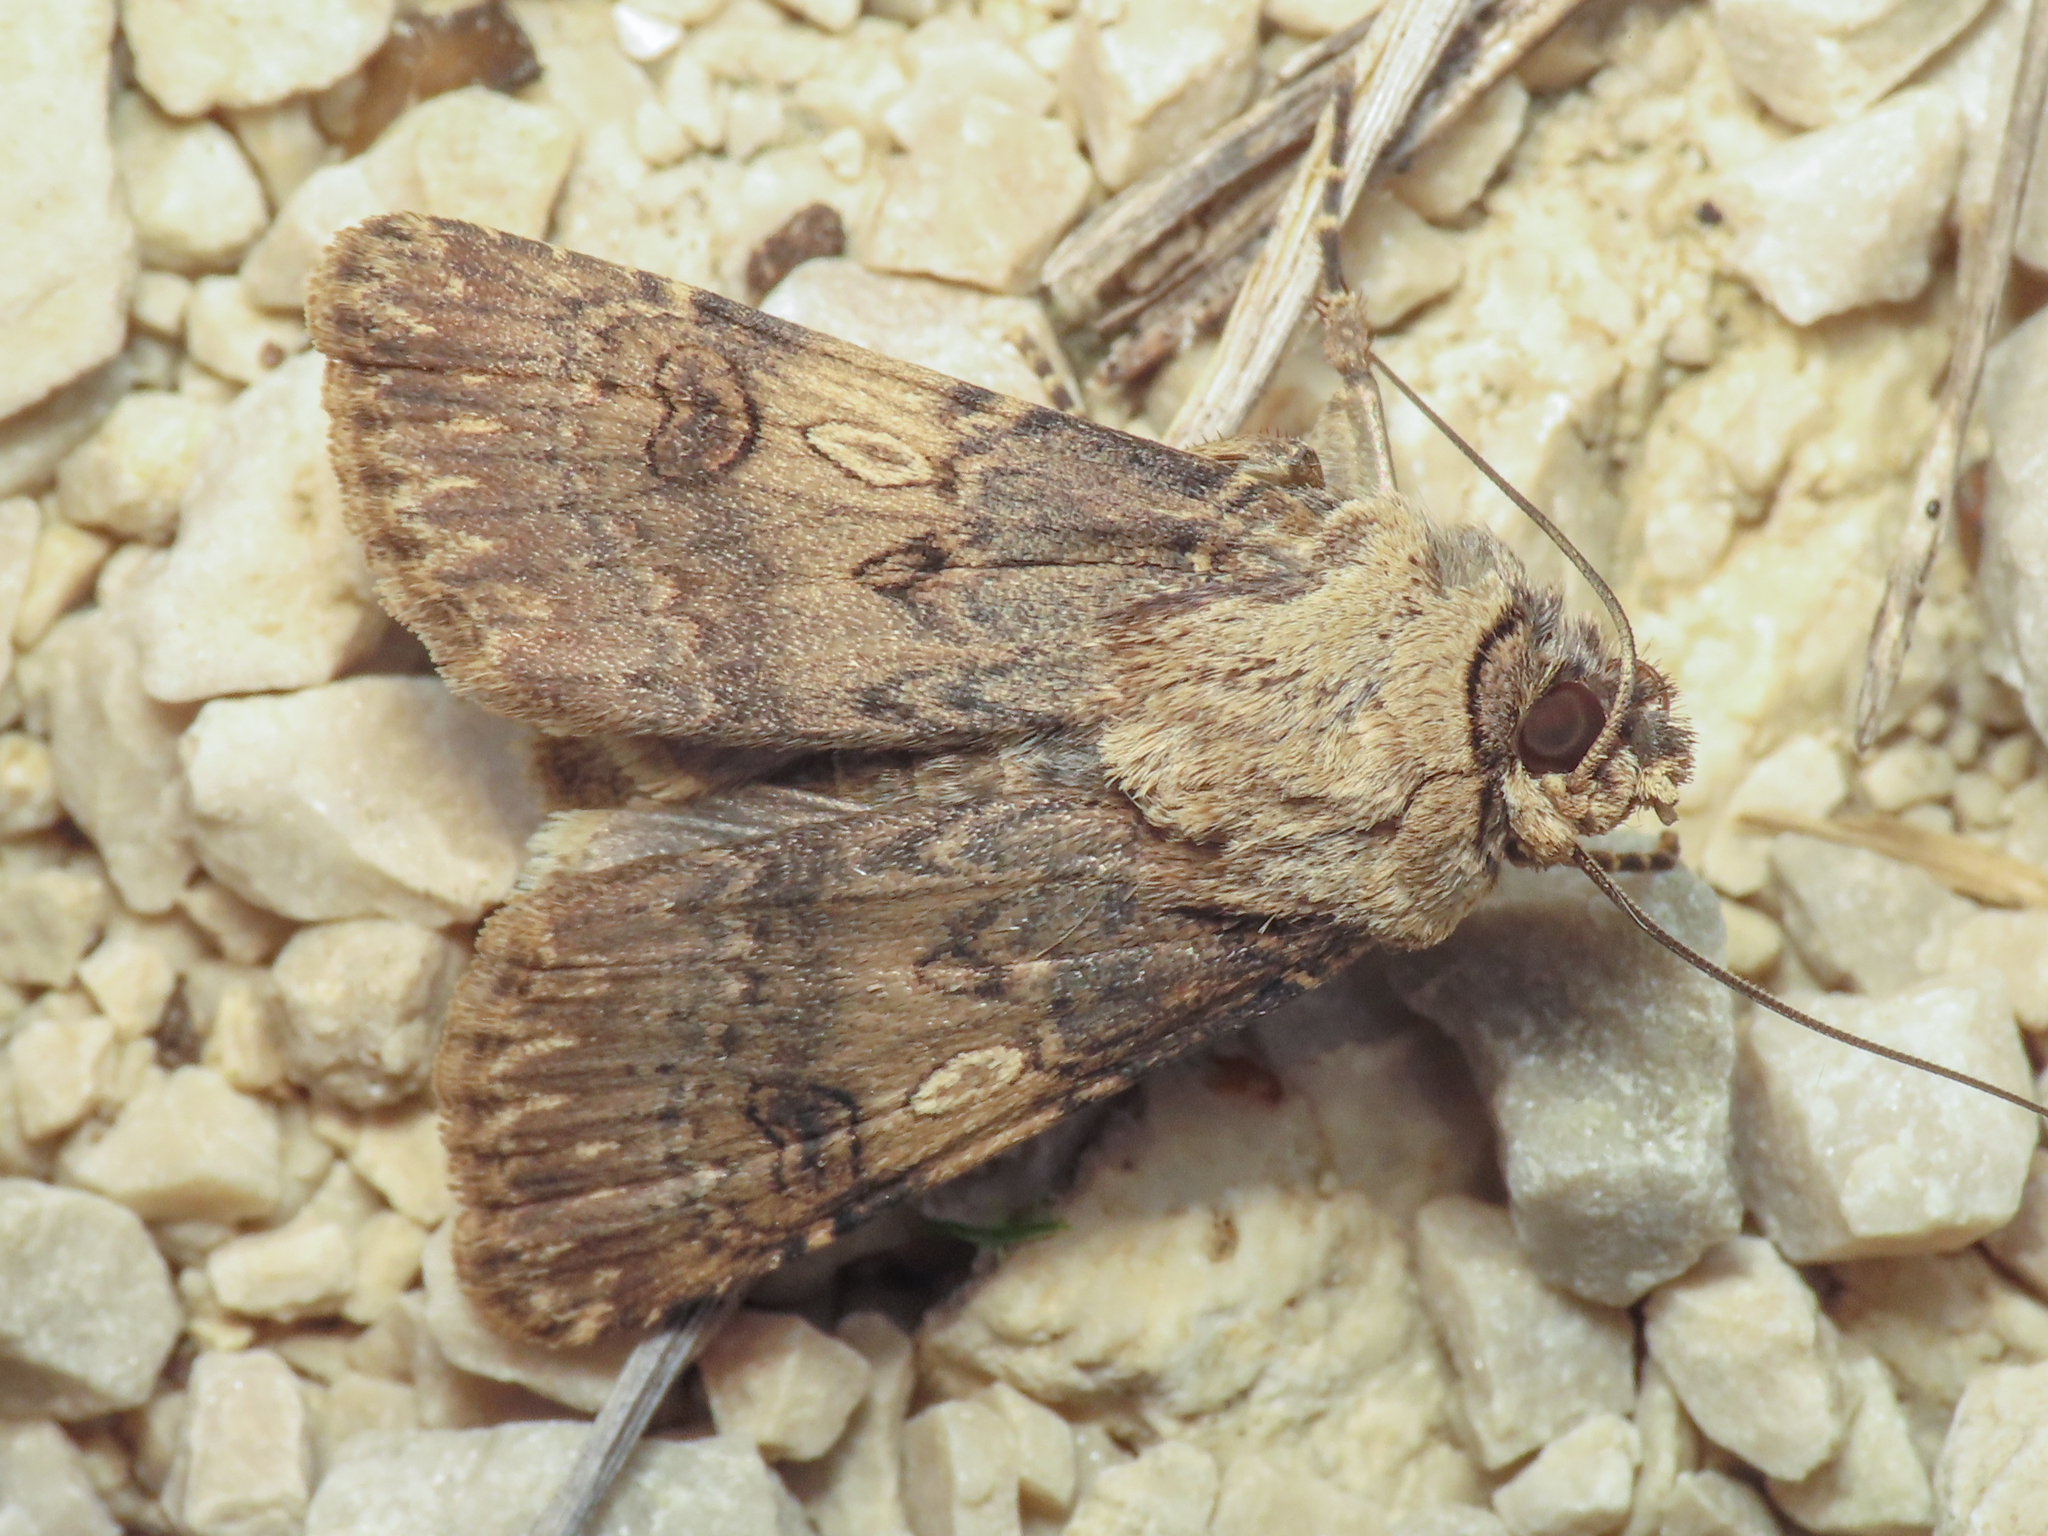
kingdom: Animalia
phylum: Arthropoda
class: Insecta
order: Lepidoptera
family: Noctuidae
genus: Agrotis
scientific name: Agrotis puta
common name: Shuttle-shaped dart
